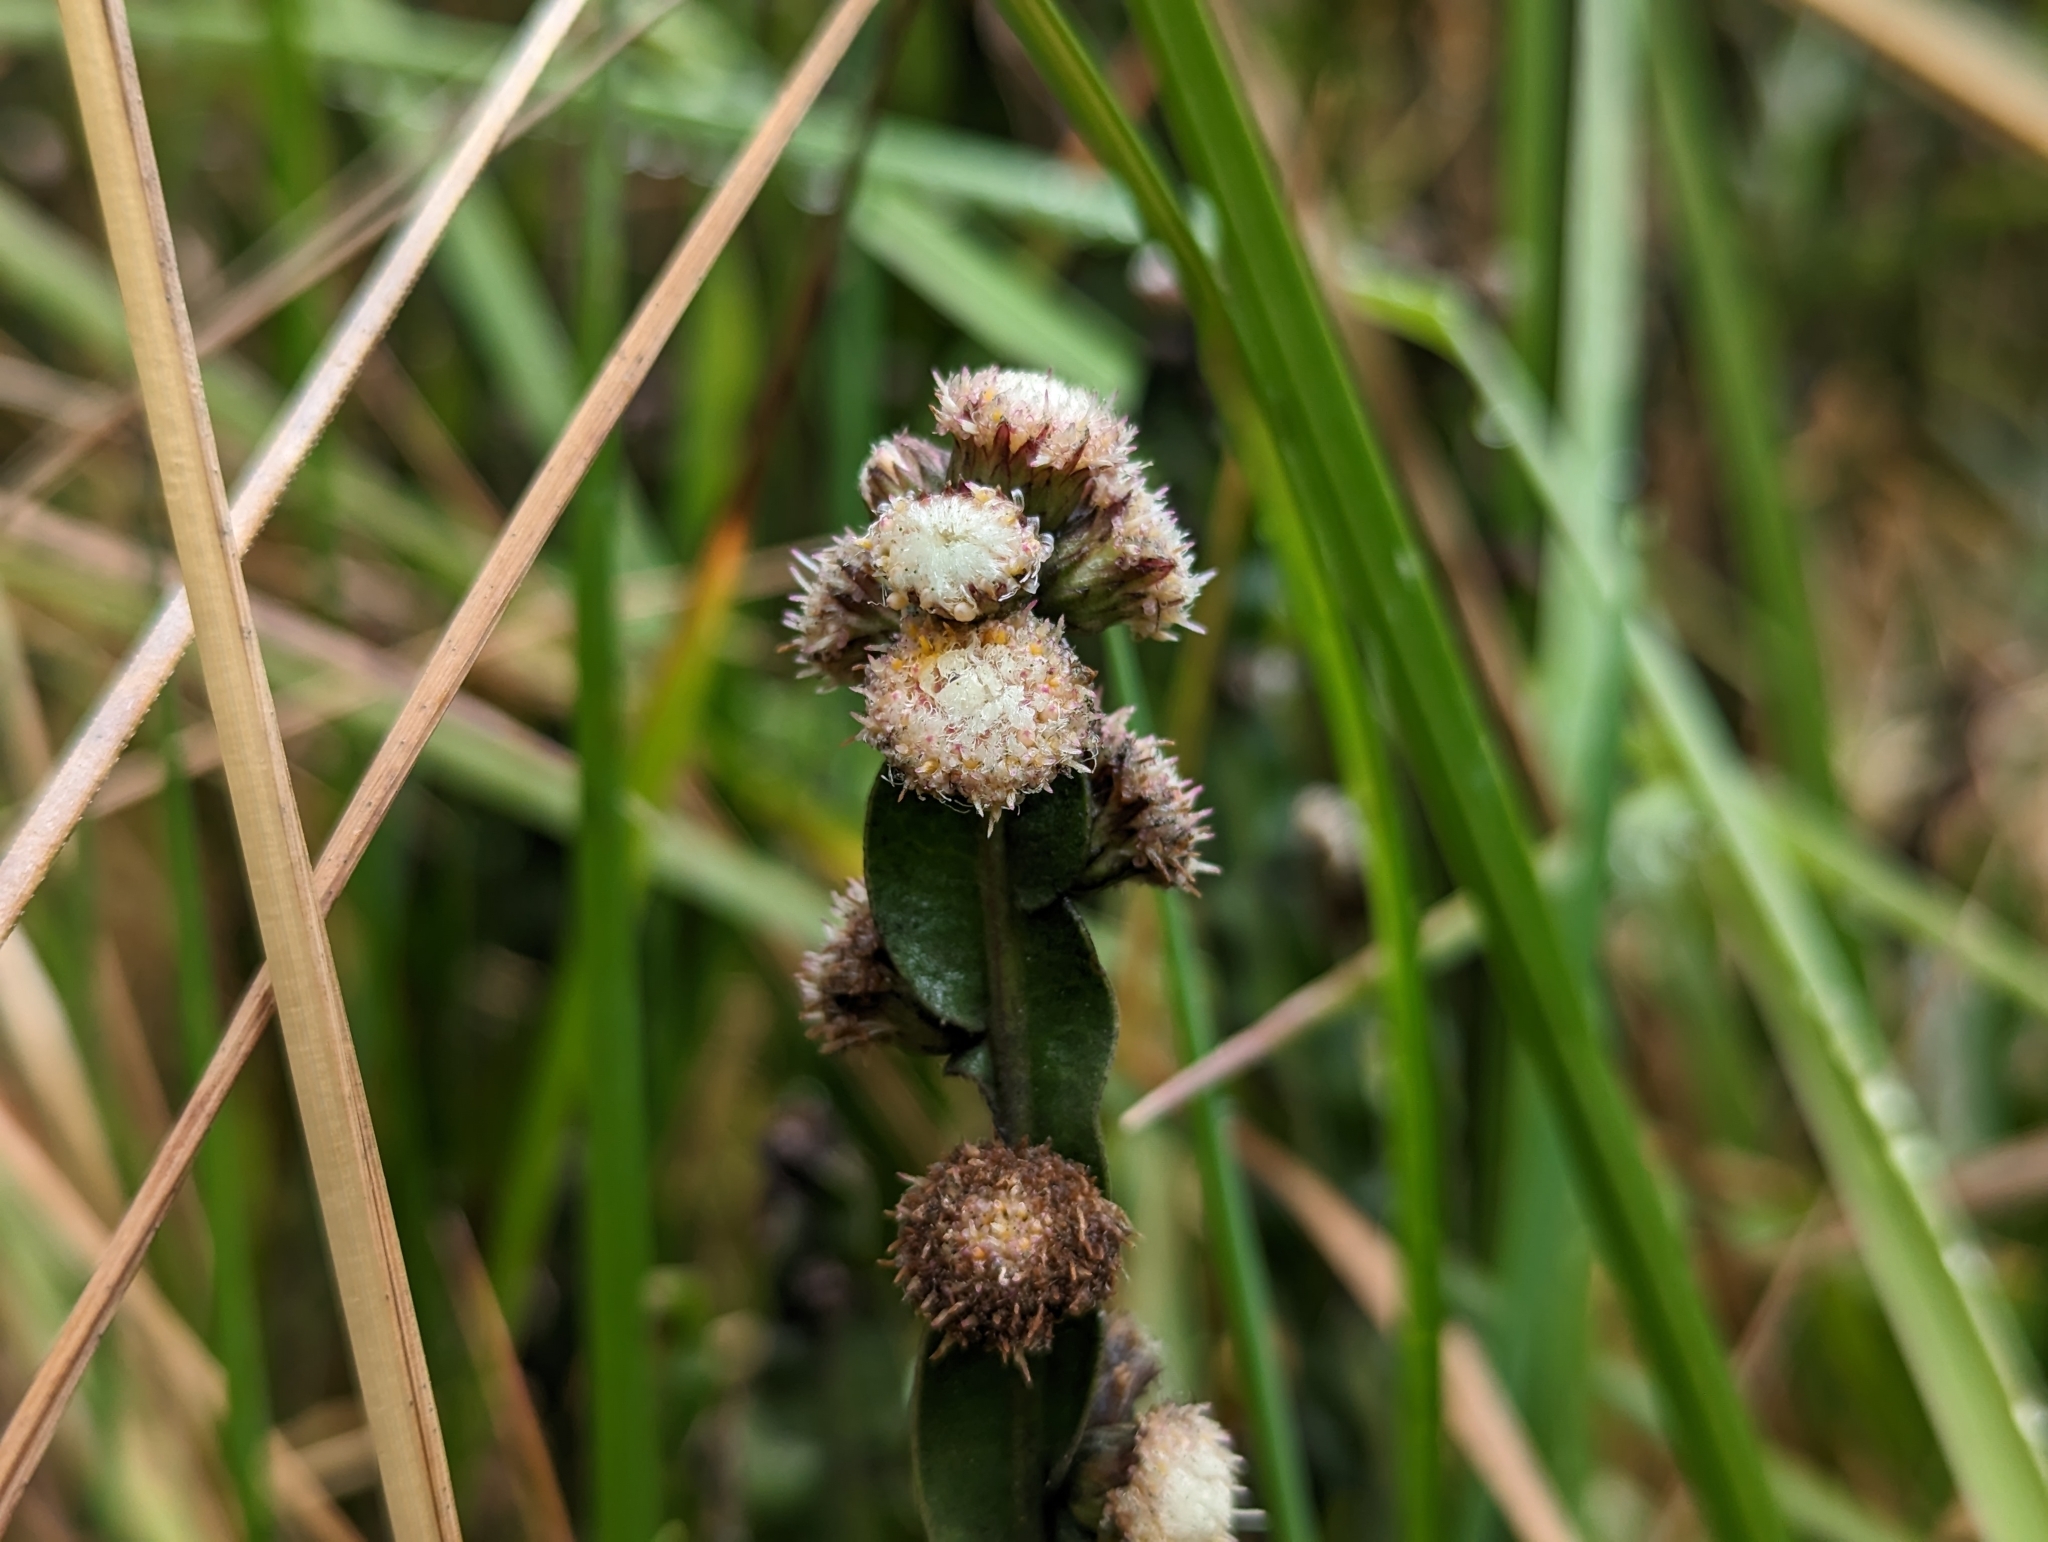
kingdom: Plantae
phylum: Tracheophyta
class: Magnoliopsida
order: Asterales
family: Asteraceae
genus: Baccharis
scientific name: Baccharis genistelloides
